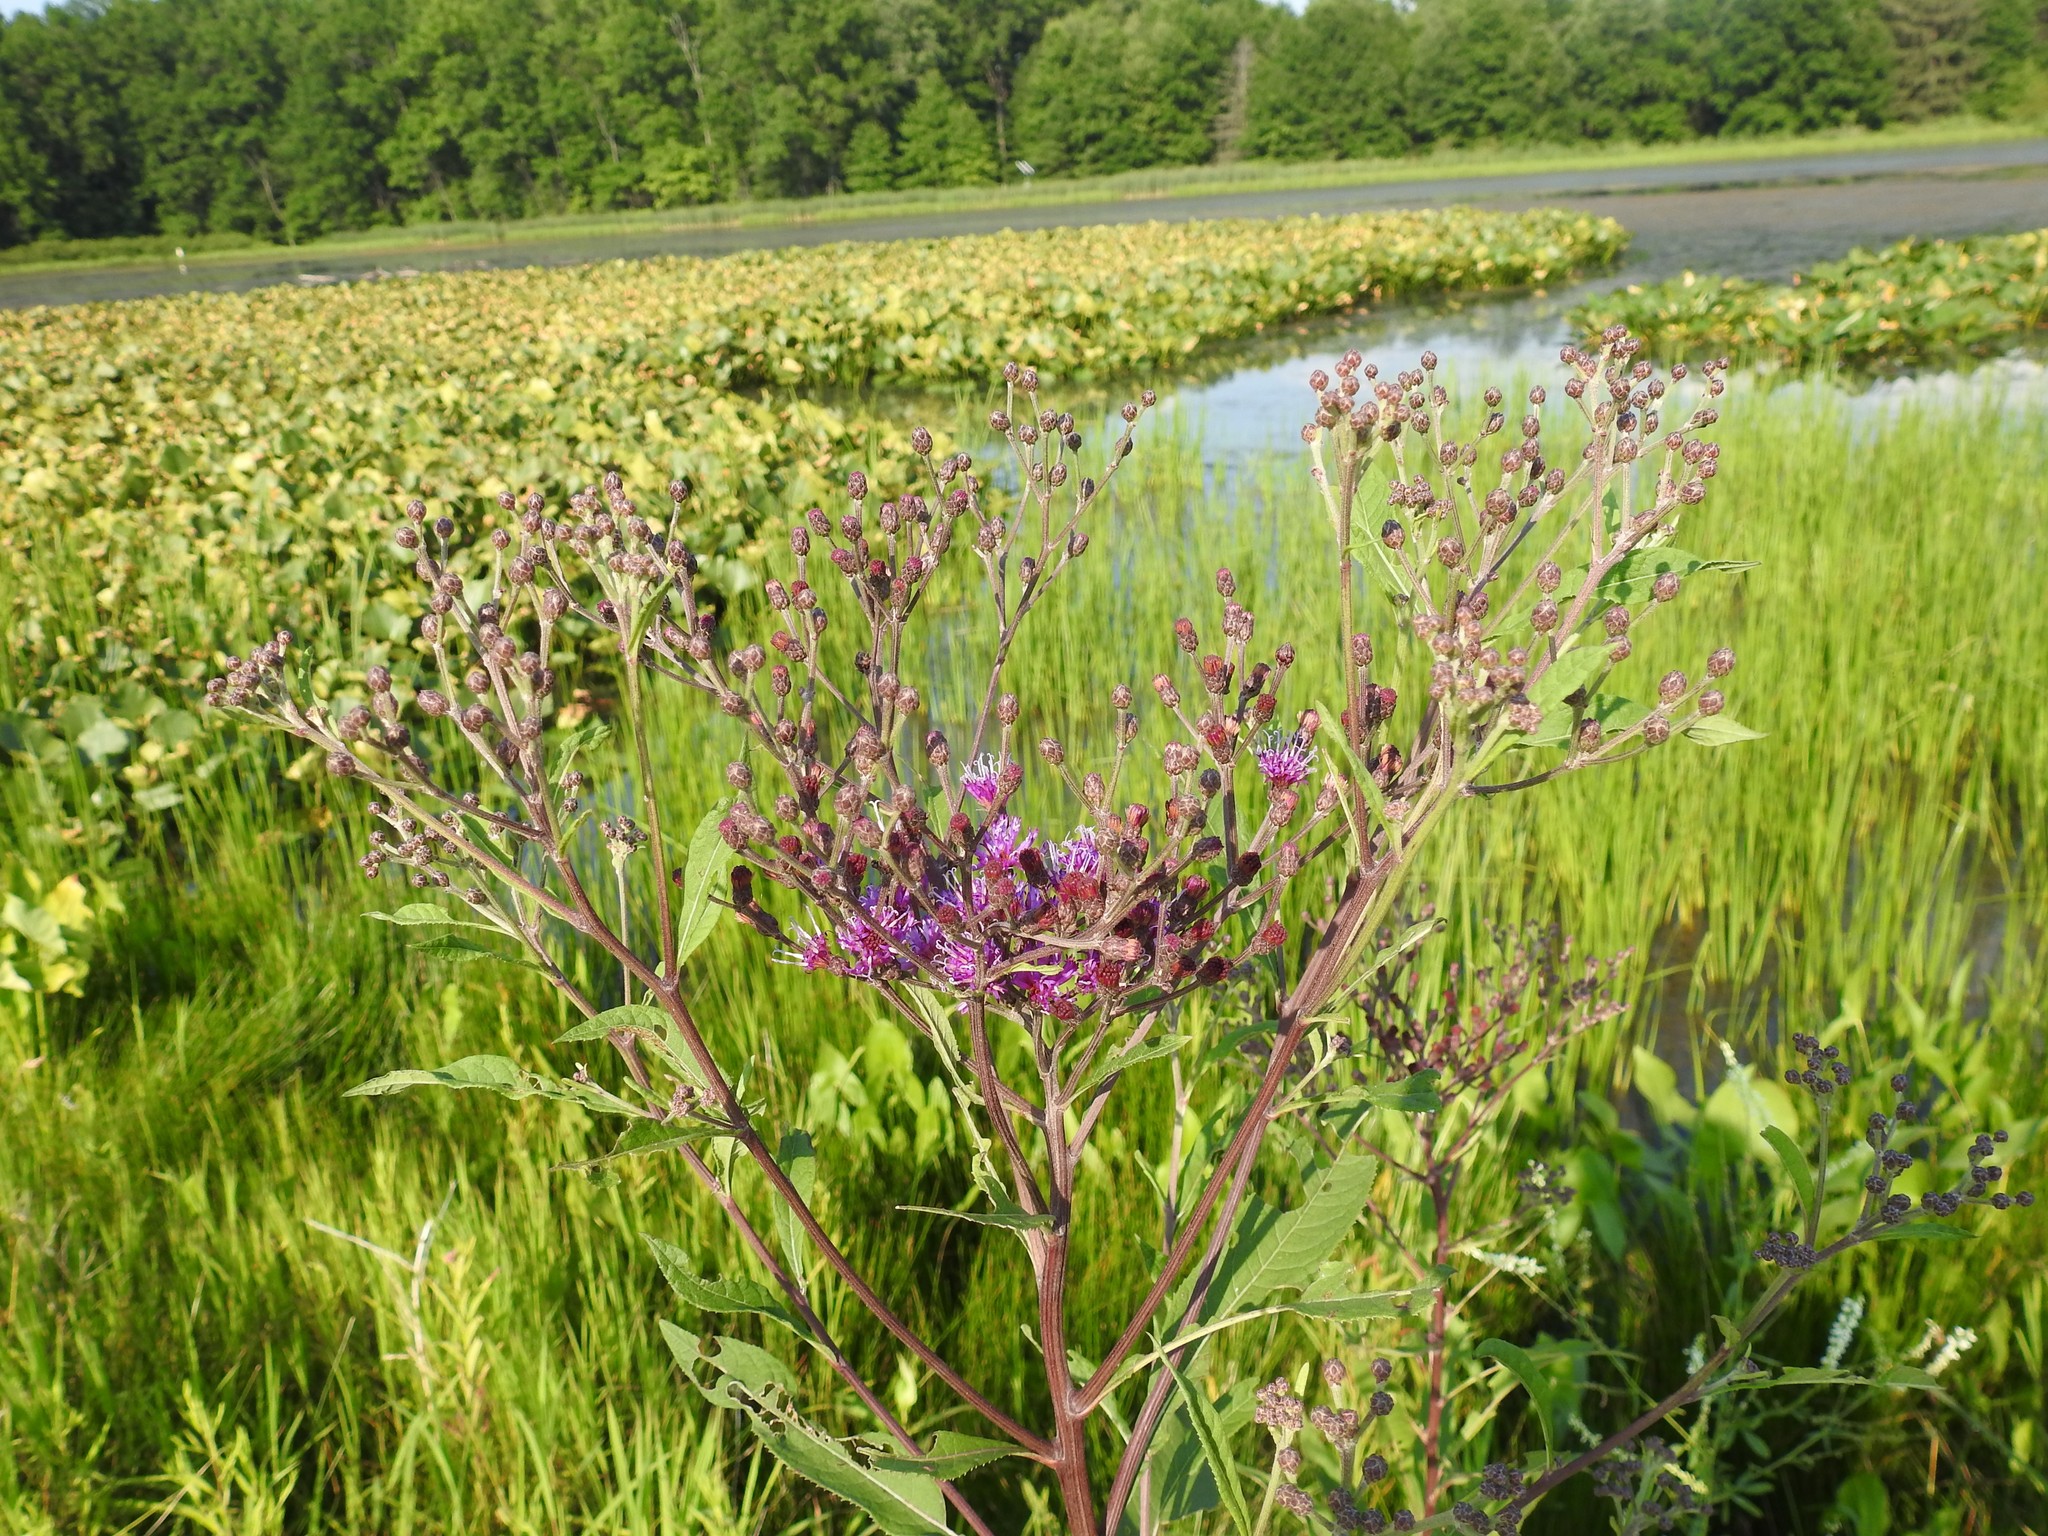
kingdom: Plantae
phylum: Tracheophyta
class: Magnoliopsida
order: Asterales
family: Asteraceae
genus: Vernonia
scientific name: Vernonia gigantea
